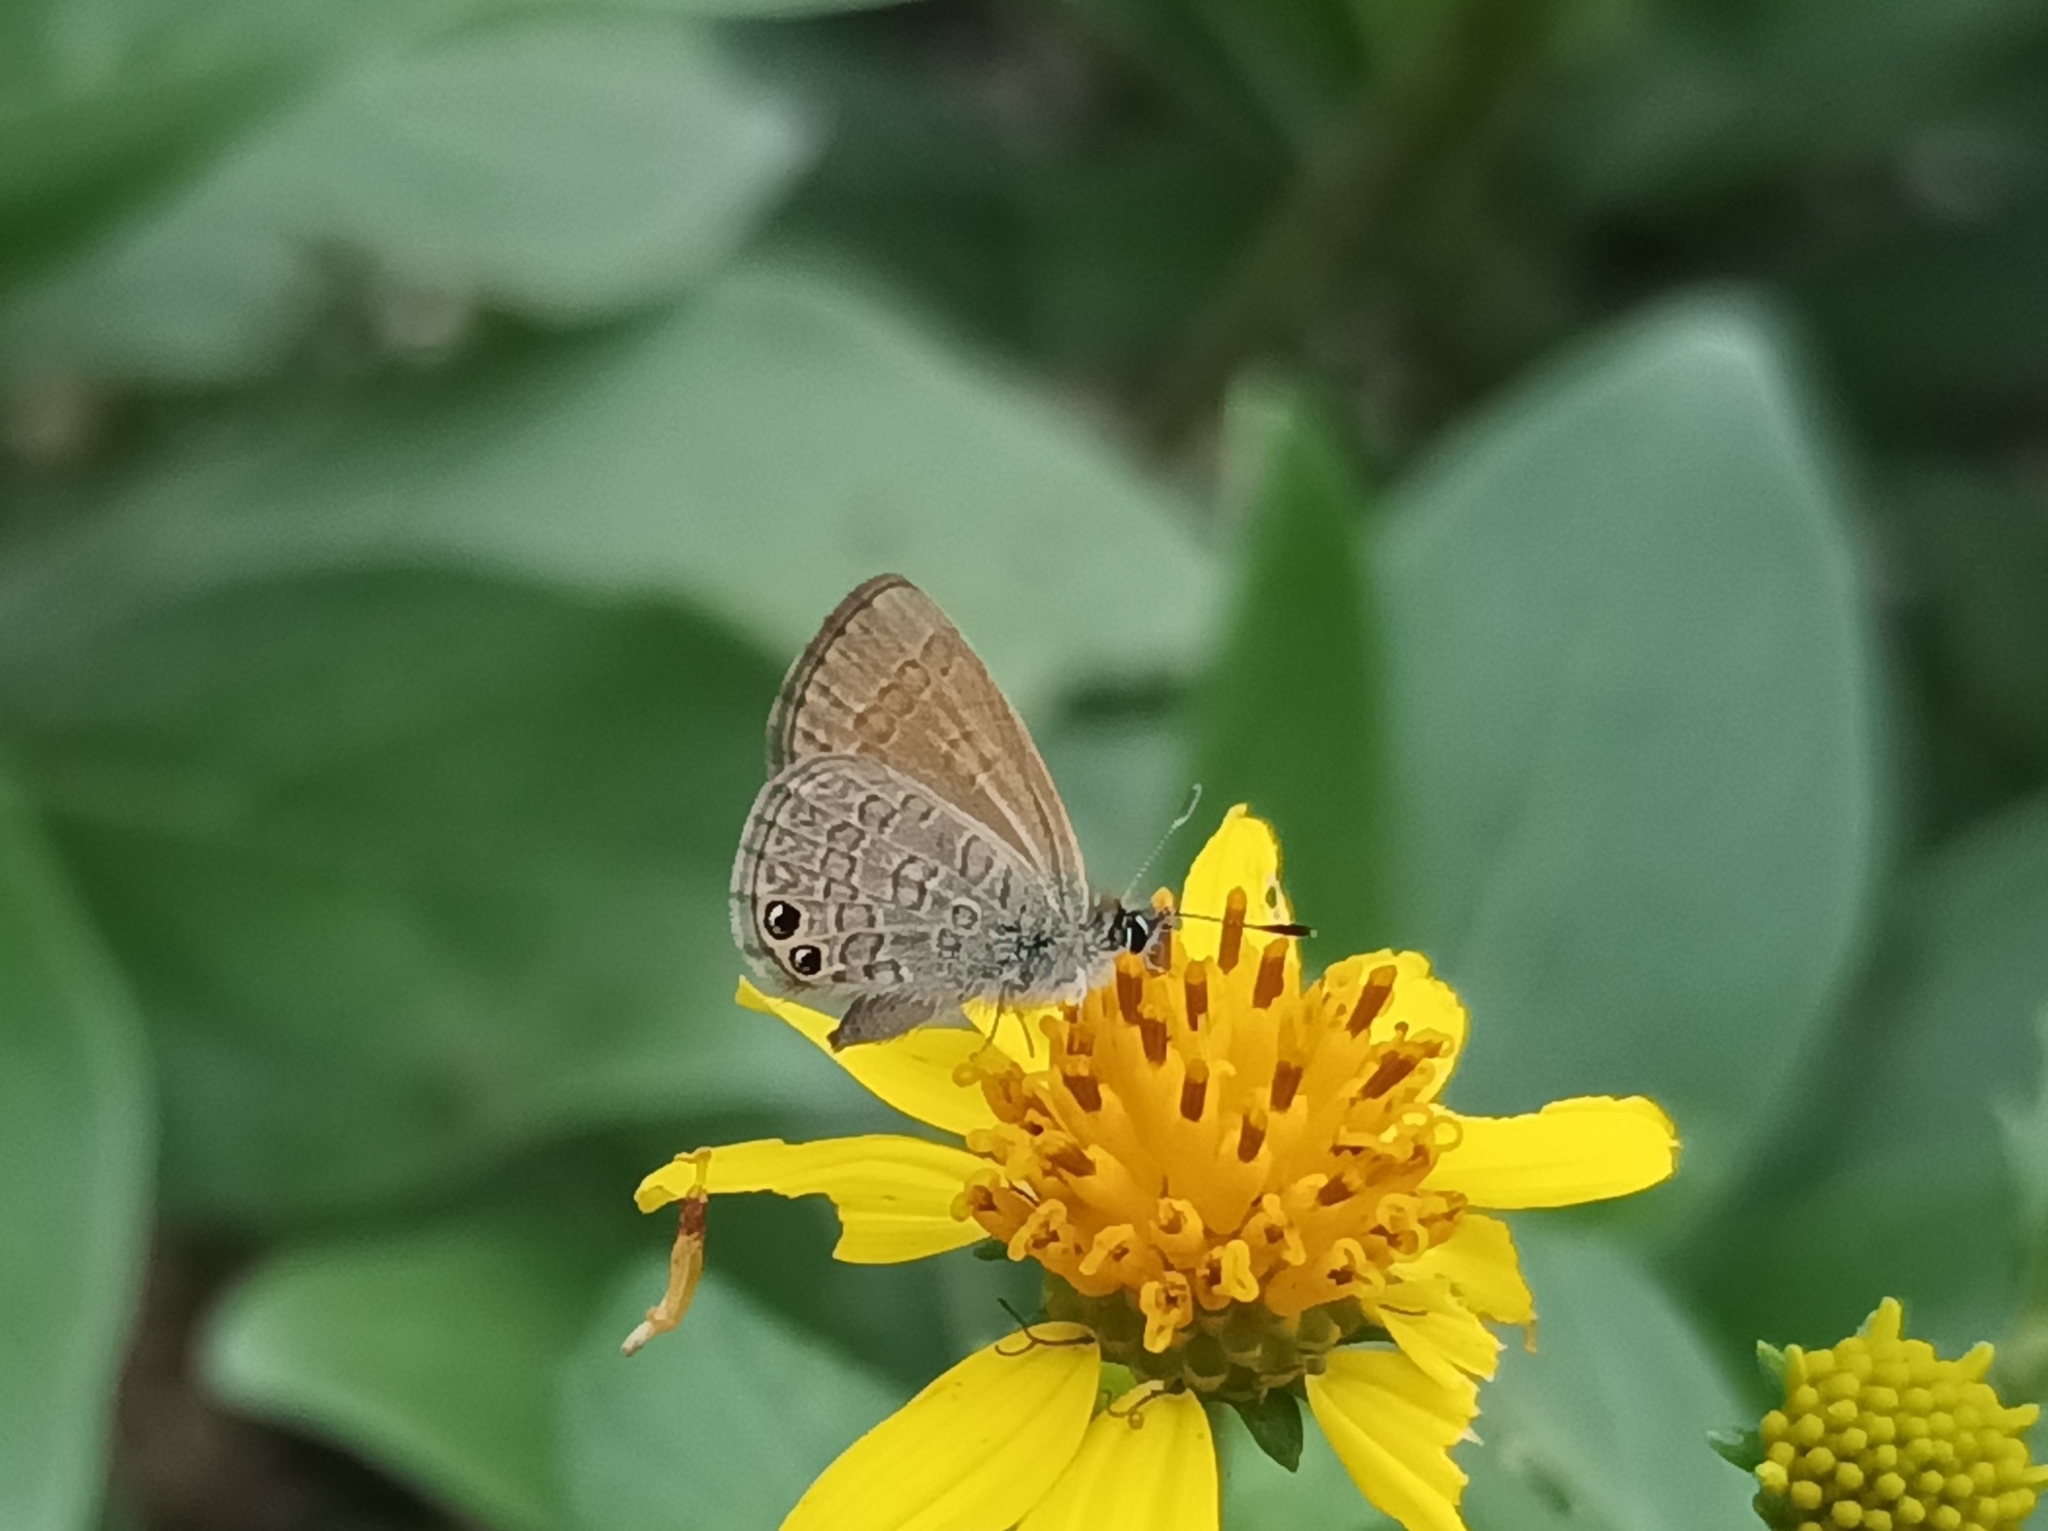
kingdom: Animalia
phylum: Arthropoda
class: Insecta
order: Lepidoptera
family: Lycaenidae
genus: Nacaduba
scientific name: Nacaduba biocellata
